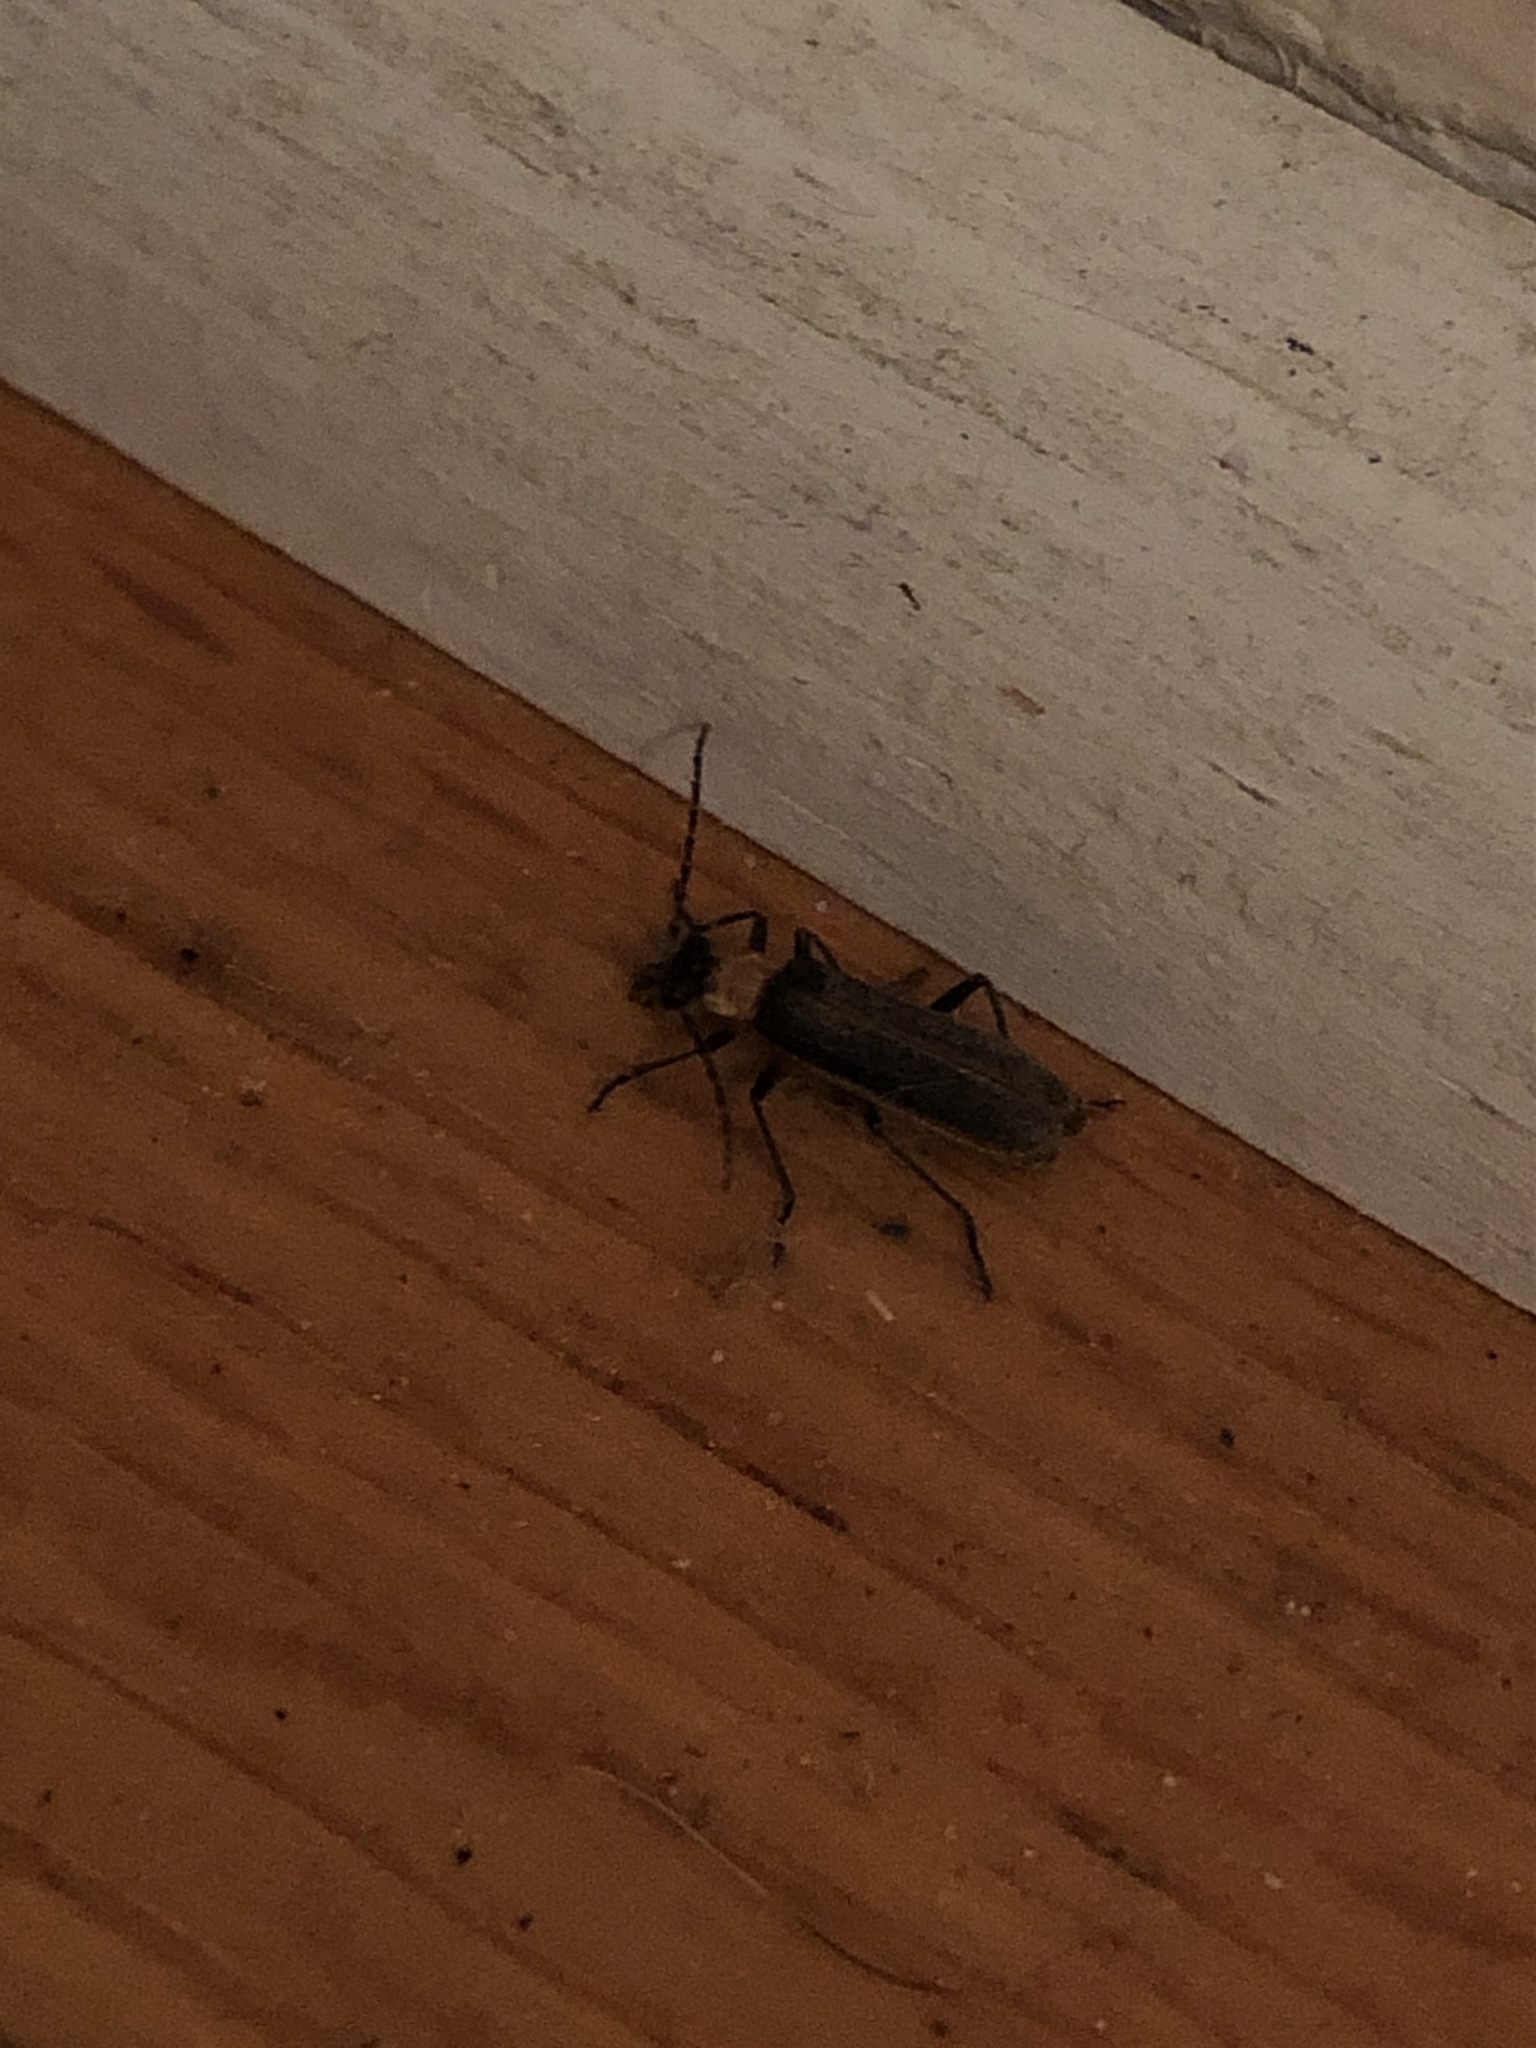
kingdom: Animalia
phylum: Arthropoda
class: Insecta
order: Coleoptera
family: Cantharidae
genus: Podabrus
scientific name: Podabrus flavicollis
